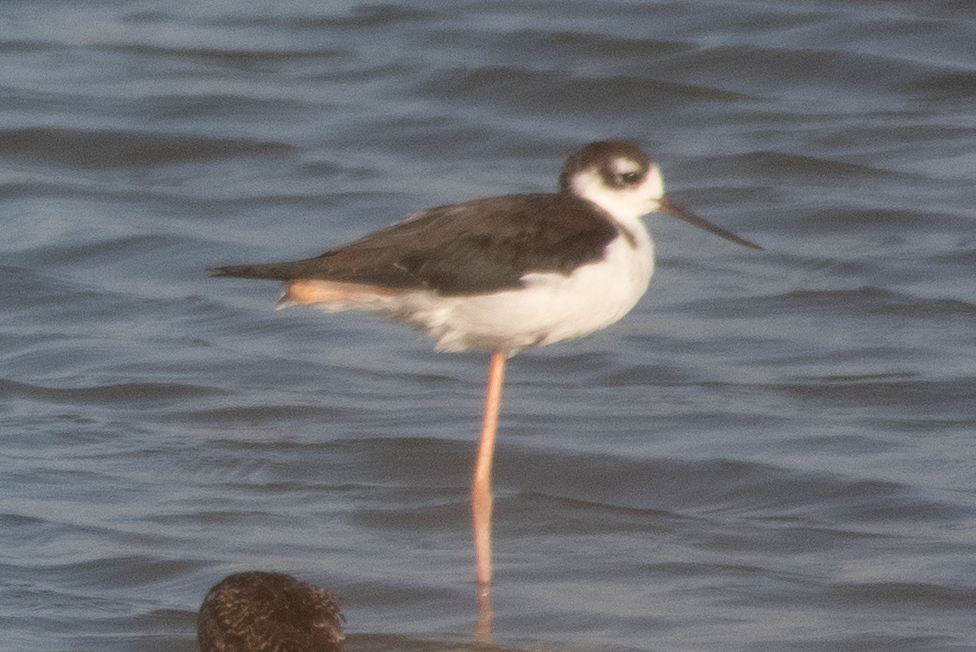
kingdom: Animalia
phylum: Chordata
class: Aves
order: Charadriiformes
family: Recurvirostridae
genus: Himantopus
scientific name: Himantopus mexicanus
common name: Black-necked stilt
